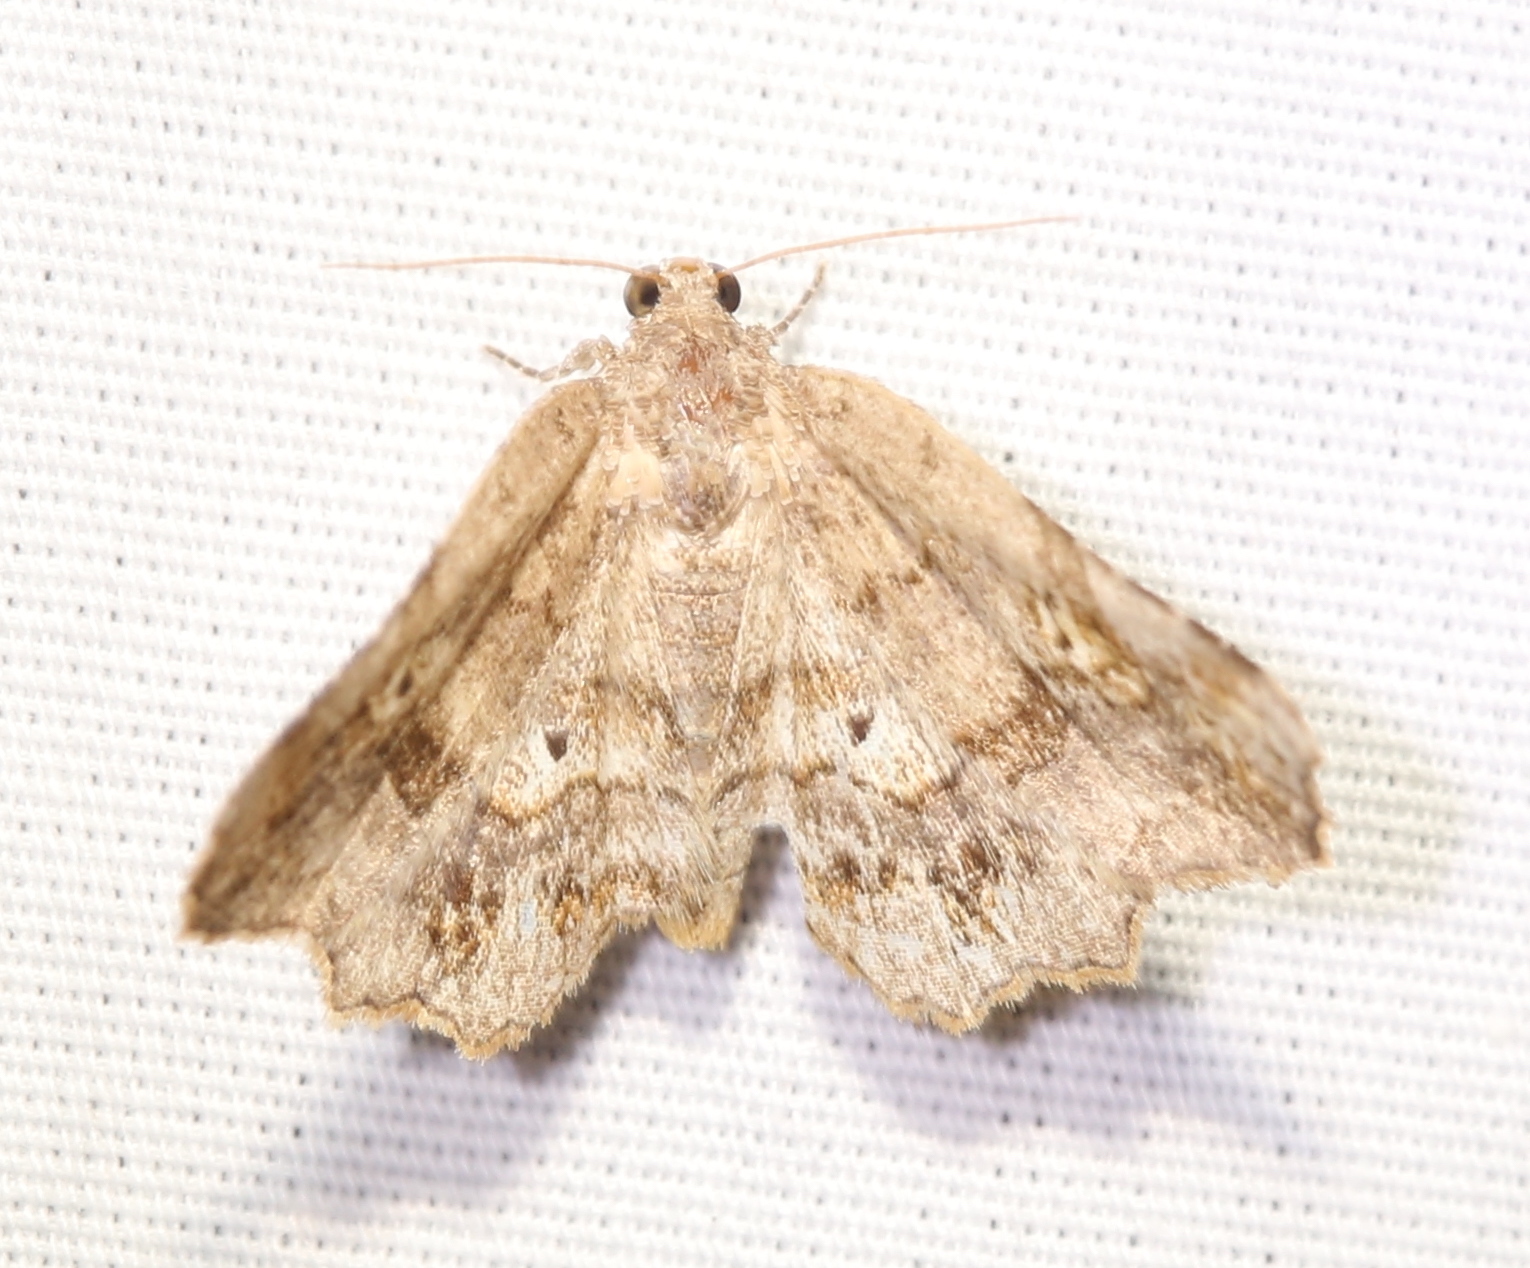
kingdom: Animalia
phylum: Arthropoda
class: Insecta
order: Lepidoptera
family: Erebidae
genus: Pangrapta
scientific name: Pangrapta decoralis
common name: Decorated owlet
